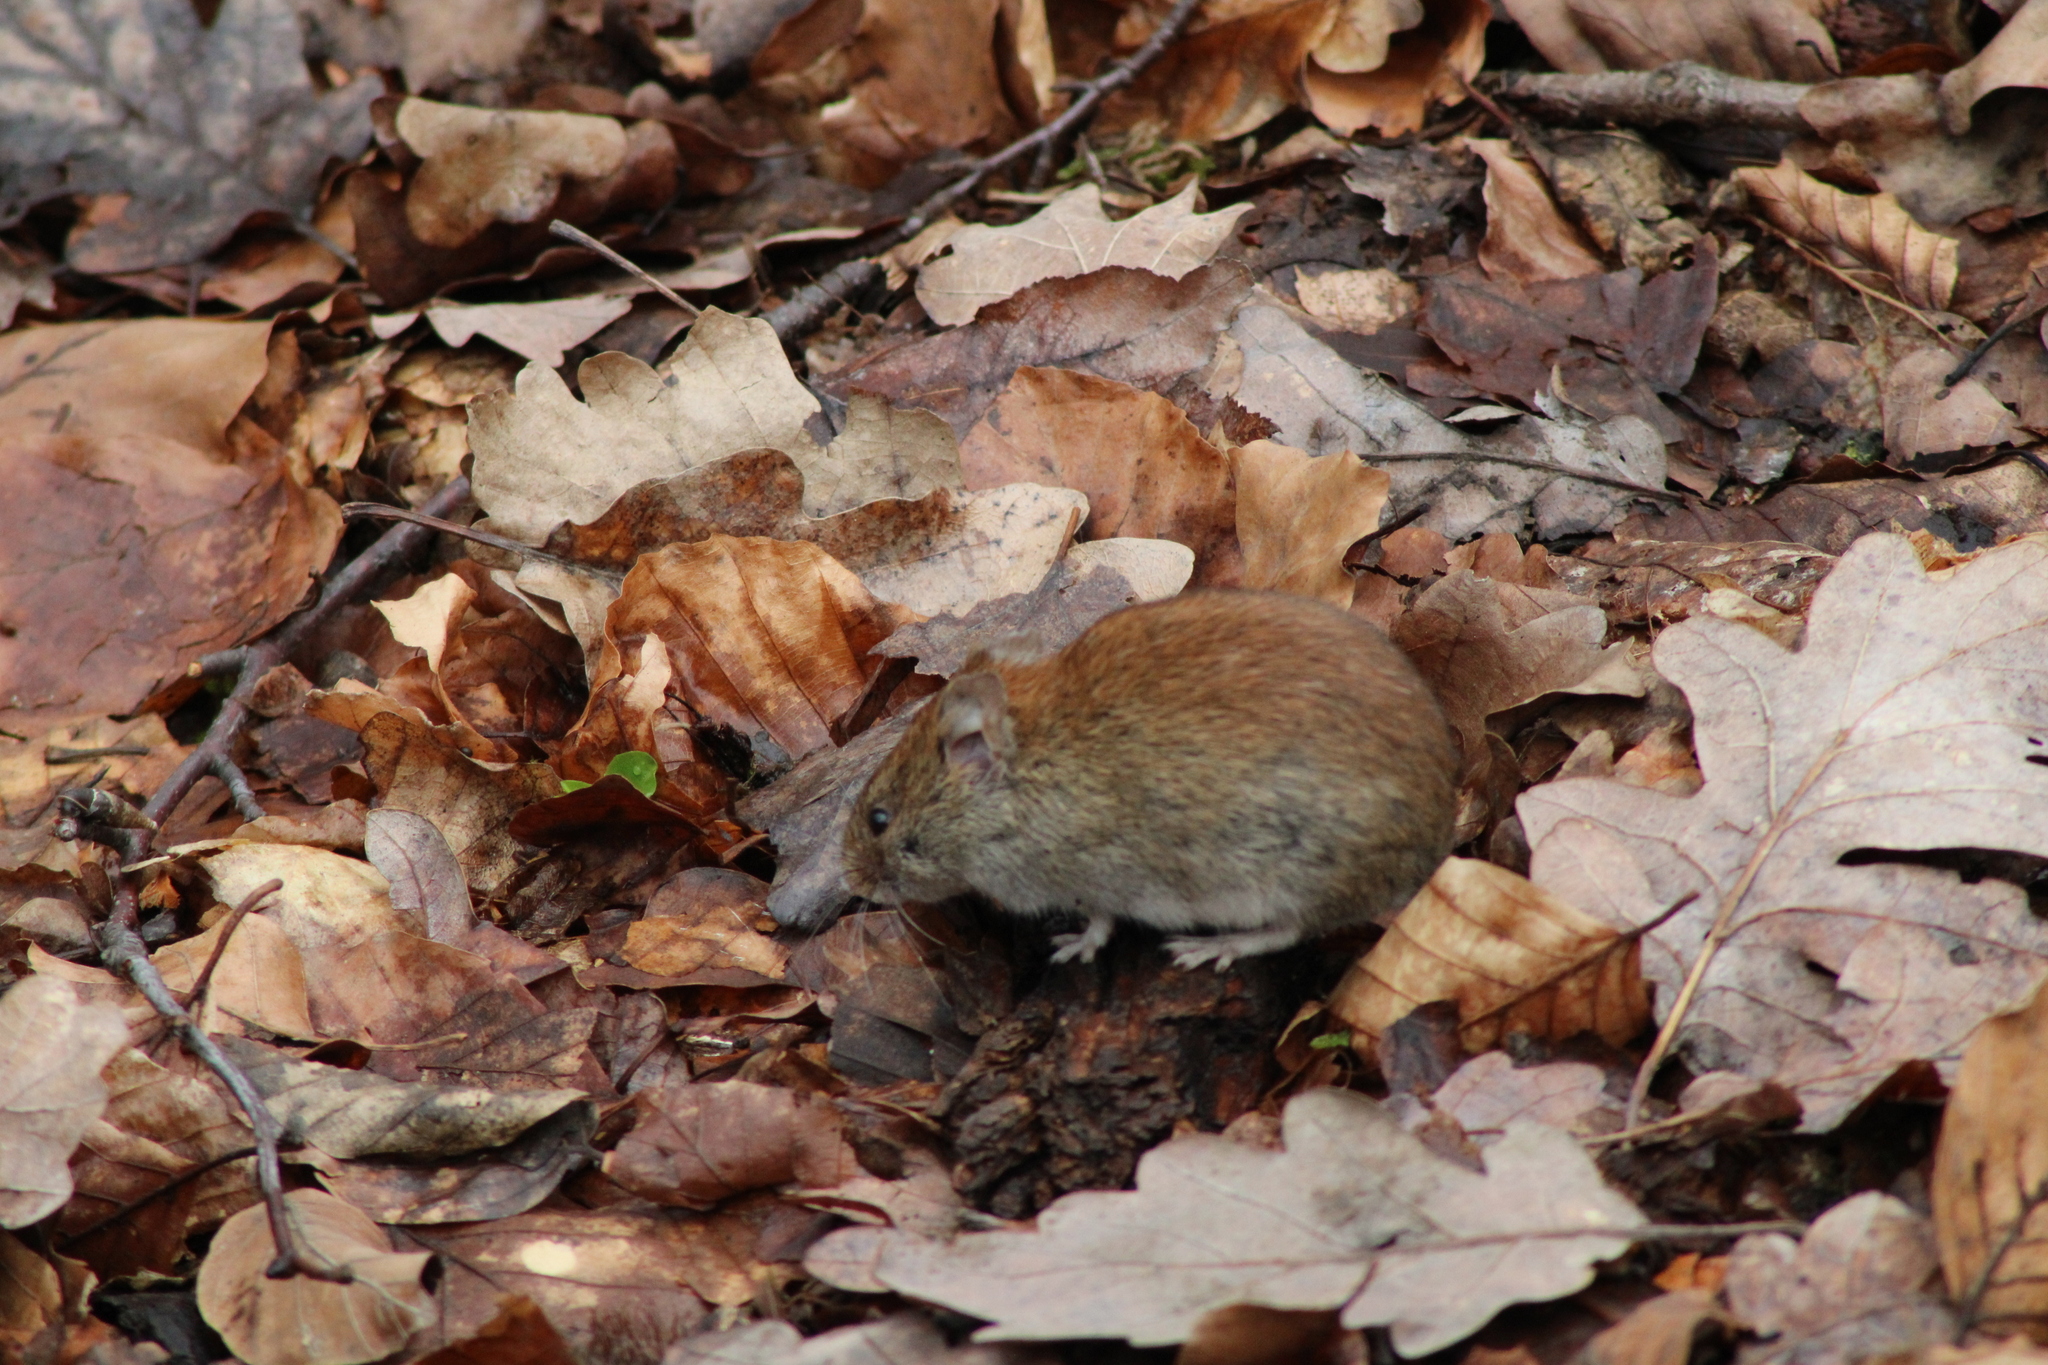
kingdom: Animalia
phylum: Chordata
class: Mammalia
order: Rodentia
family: Cricetidae
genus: Myodes
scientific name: Myodes glareolus
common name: Bank vole
